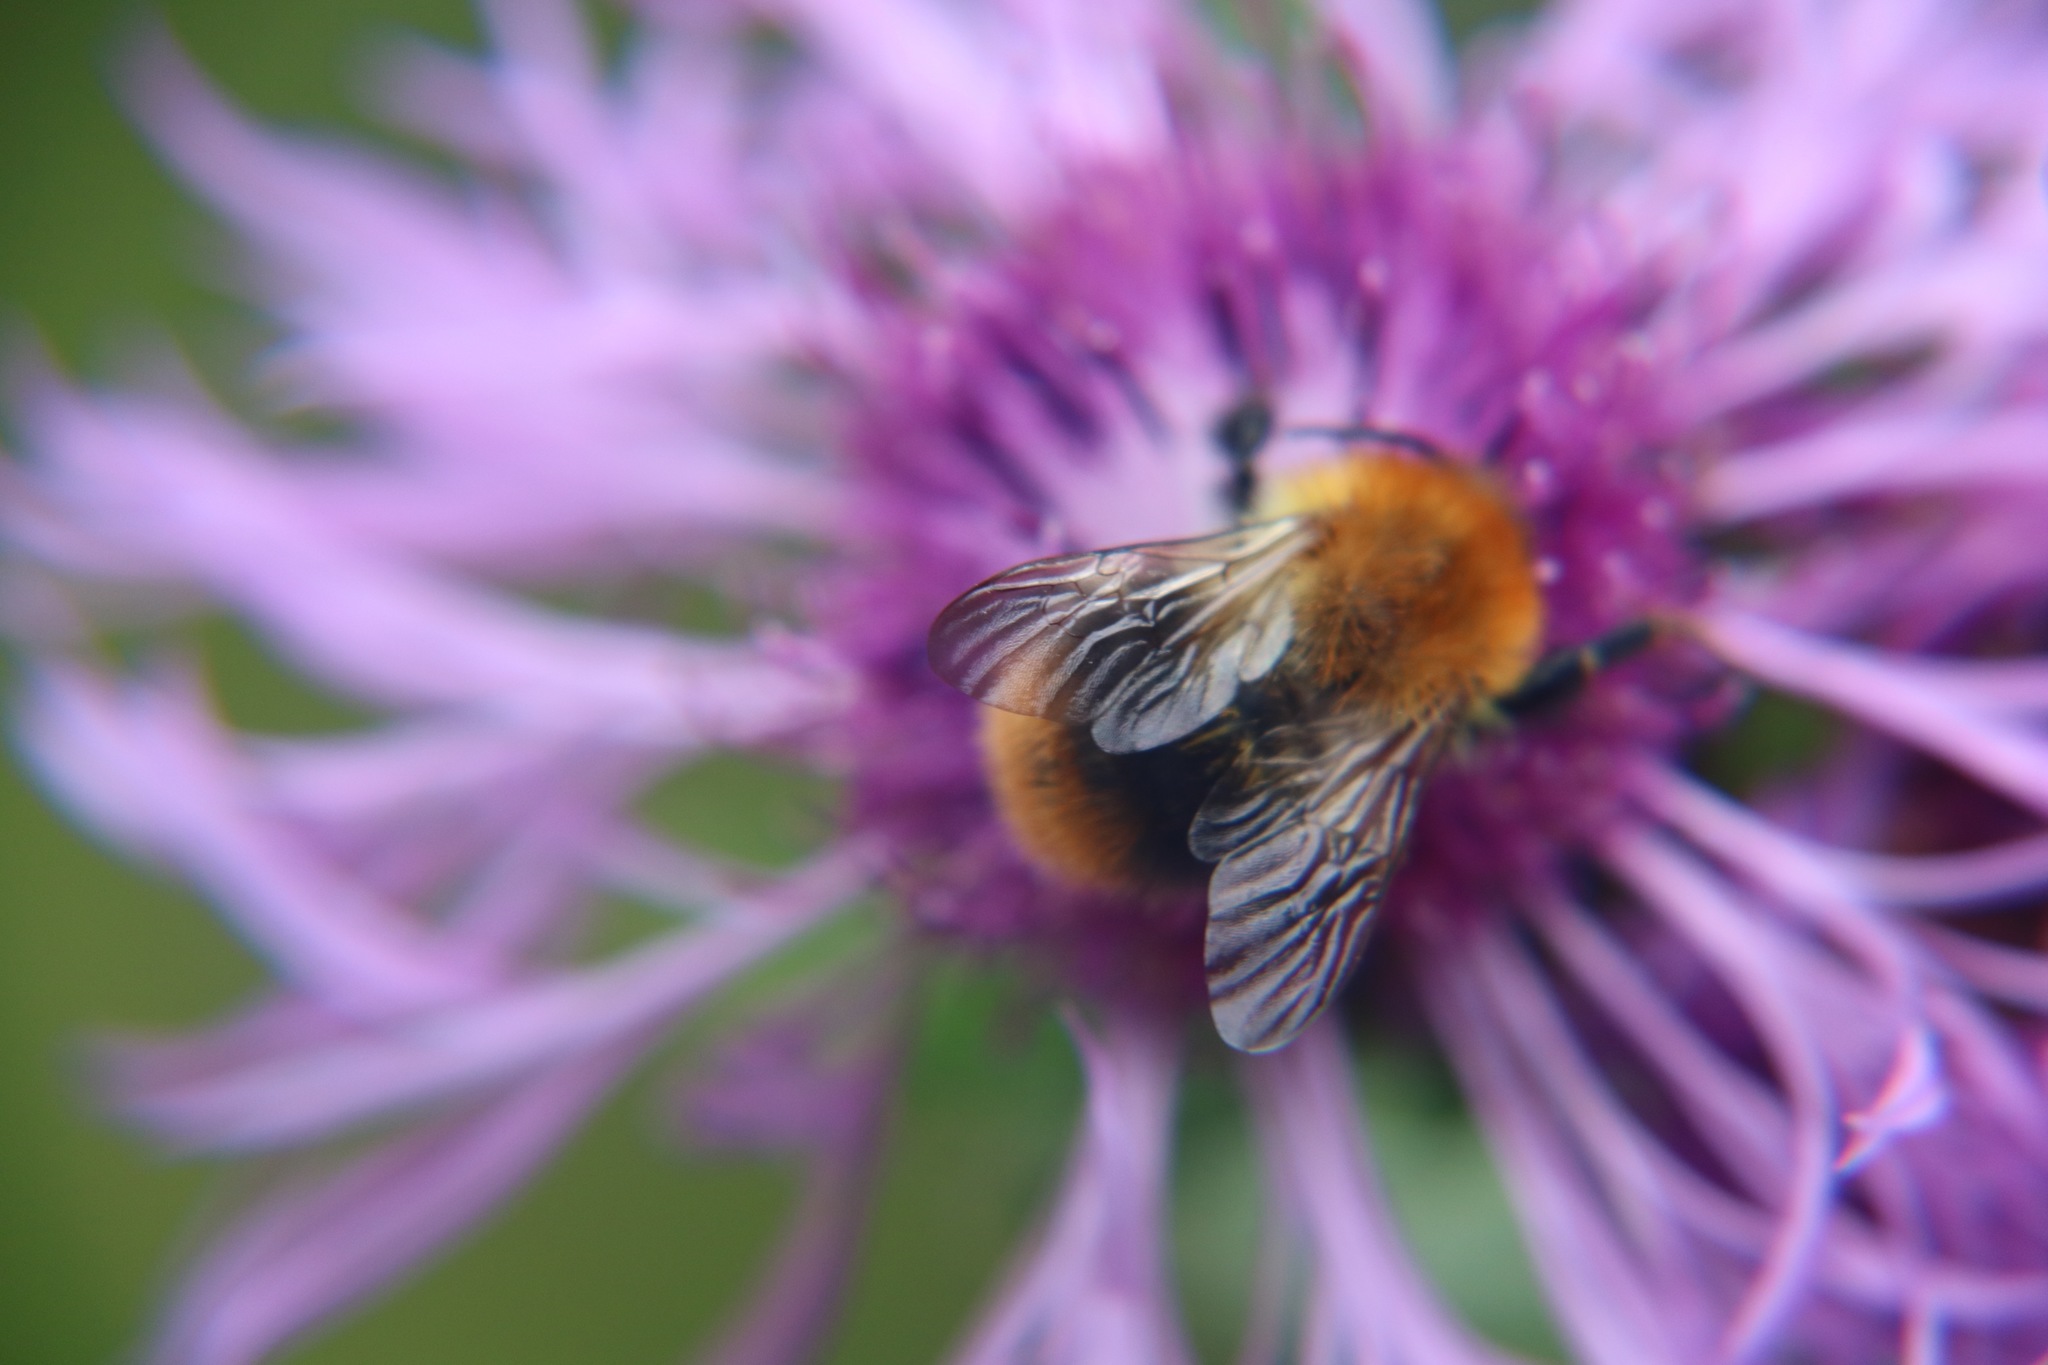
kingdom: Animalia
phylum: Arthropoda
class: Insecta
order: Hymenoptera
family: Apidae
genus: Bombus
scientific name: Bombus pascuorum
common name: Common carder bee
